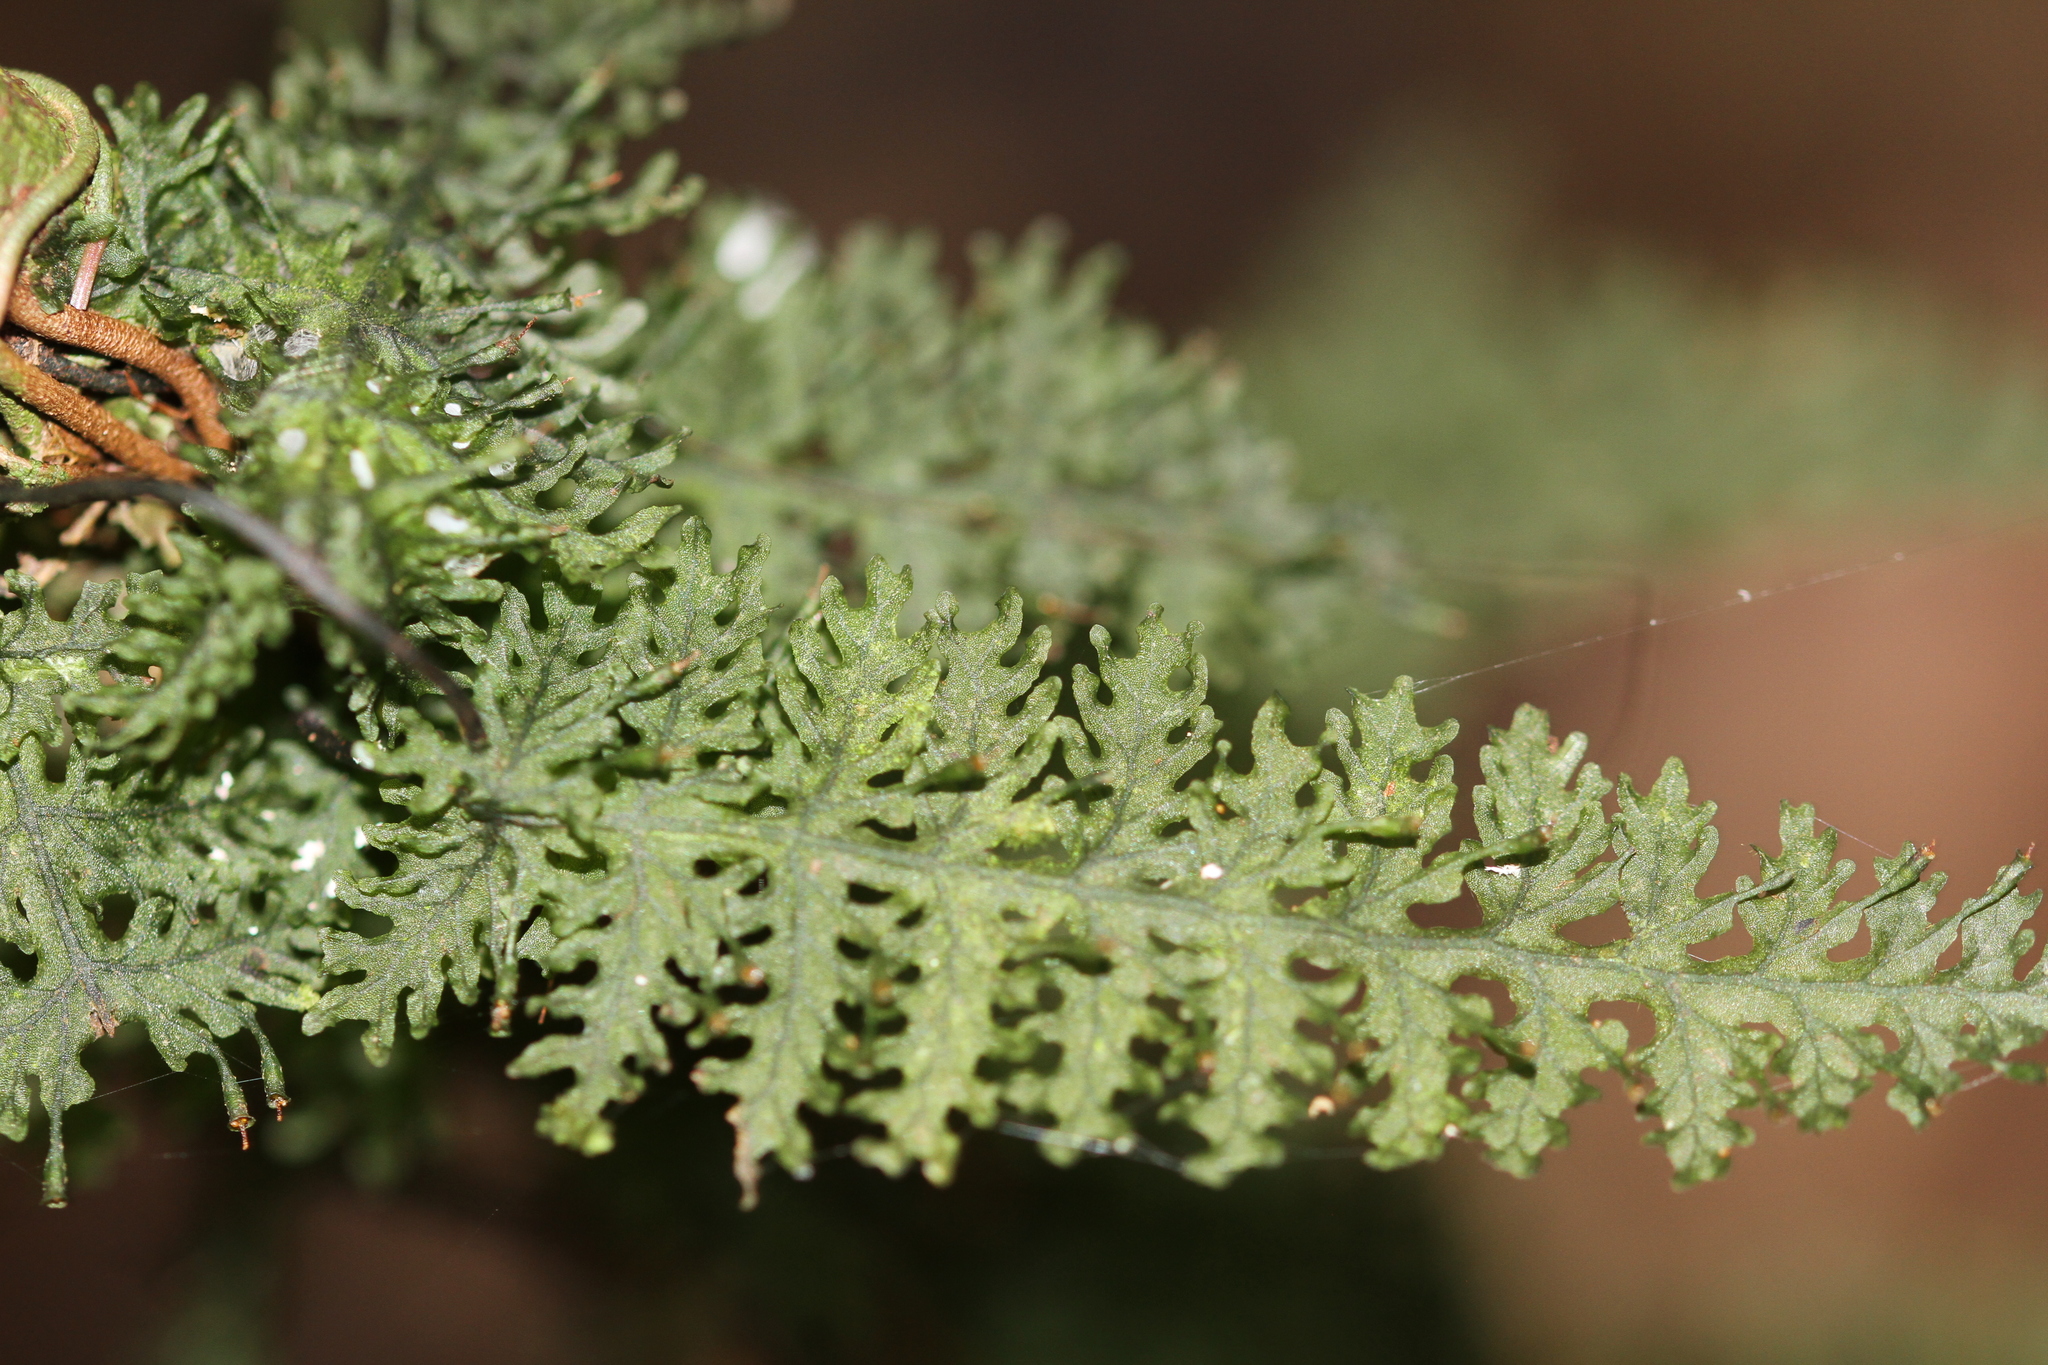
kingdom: Plantae
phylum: Tracheophyta
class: Polypodiopsida
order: Hymenophyllales
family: Hymenophyllaceae
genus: Trichomanes
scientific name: Trichomanes pedicellatum
